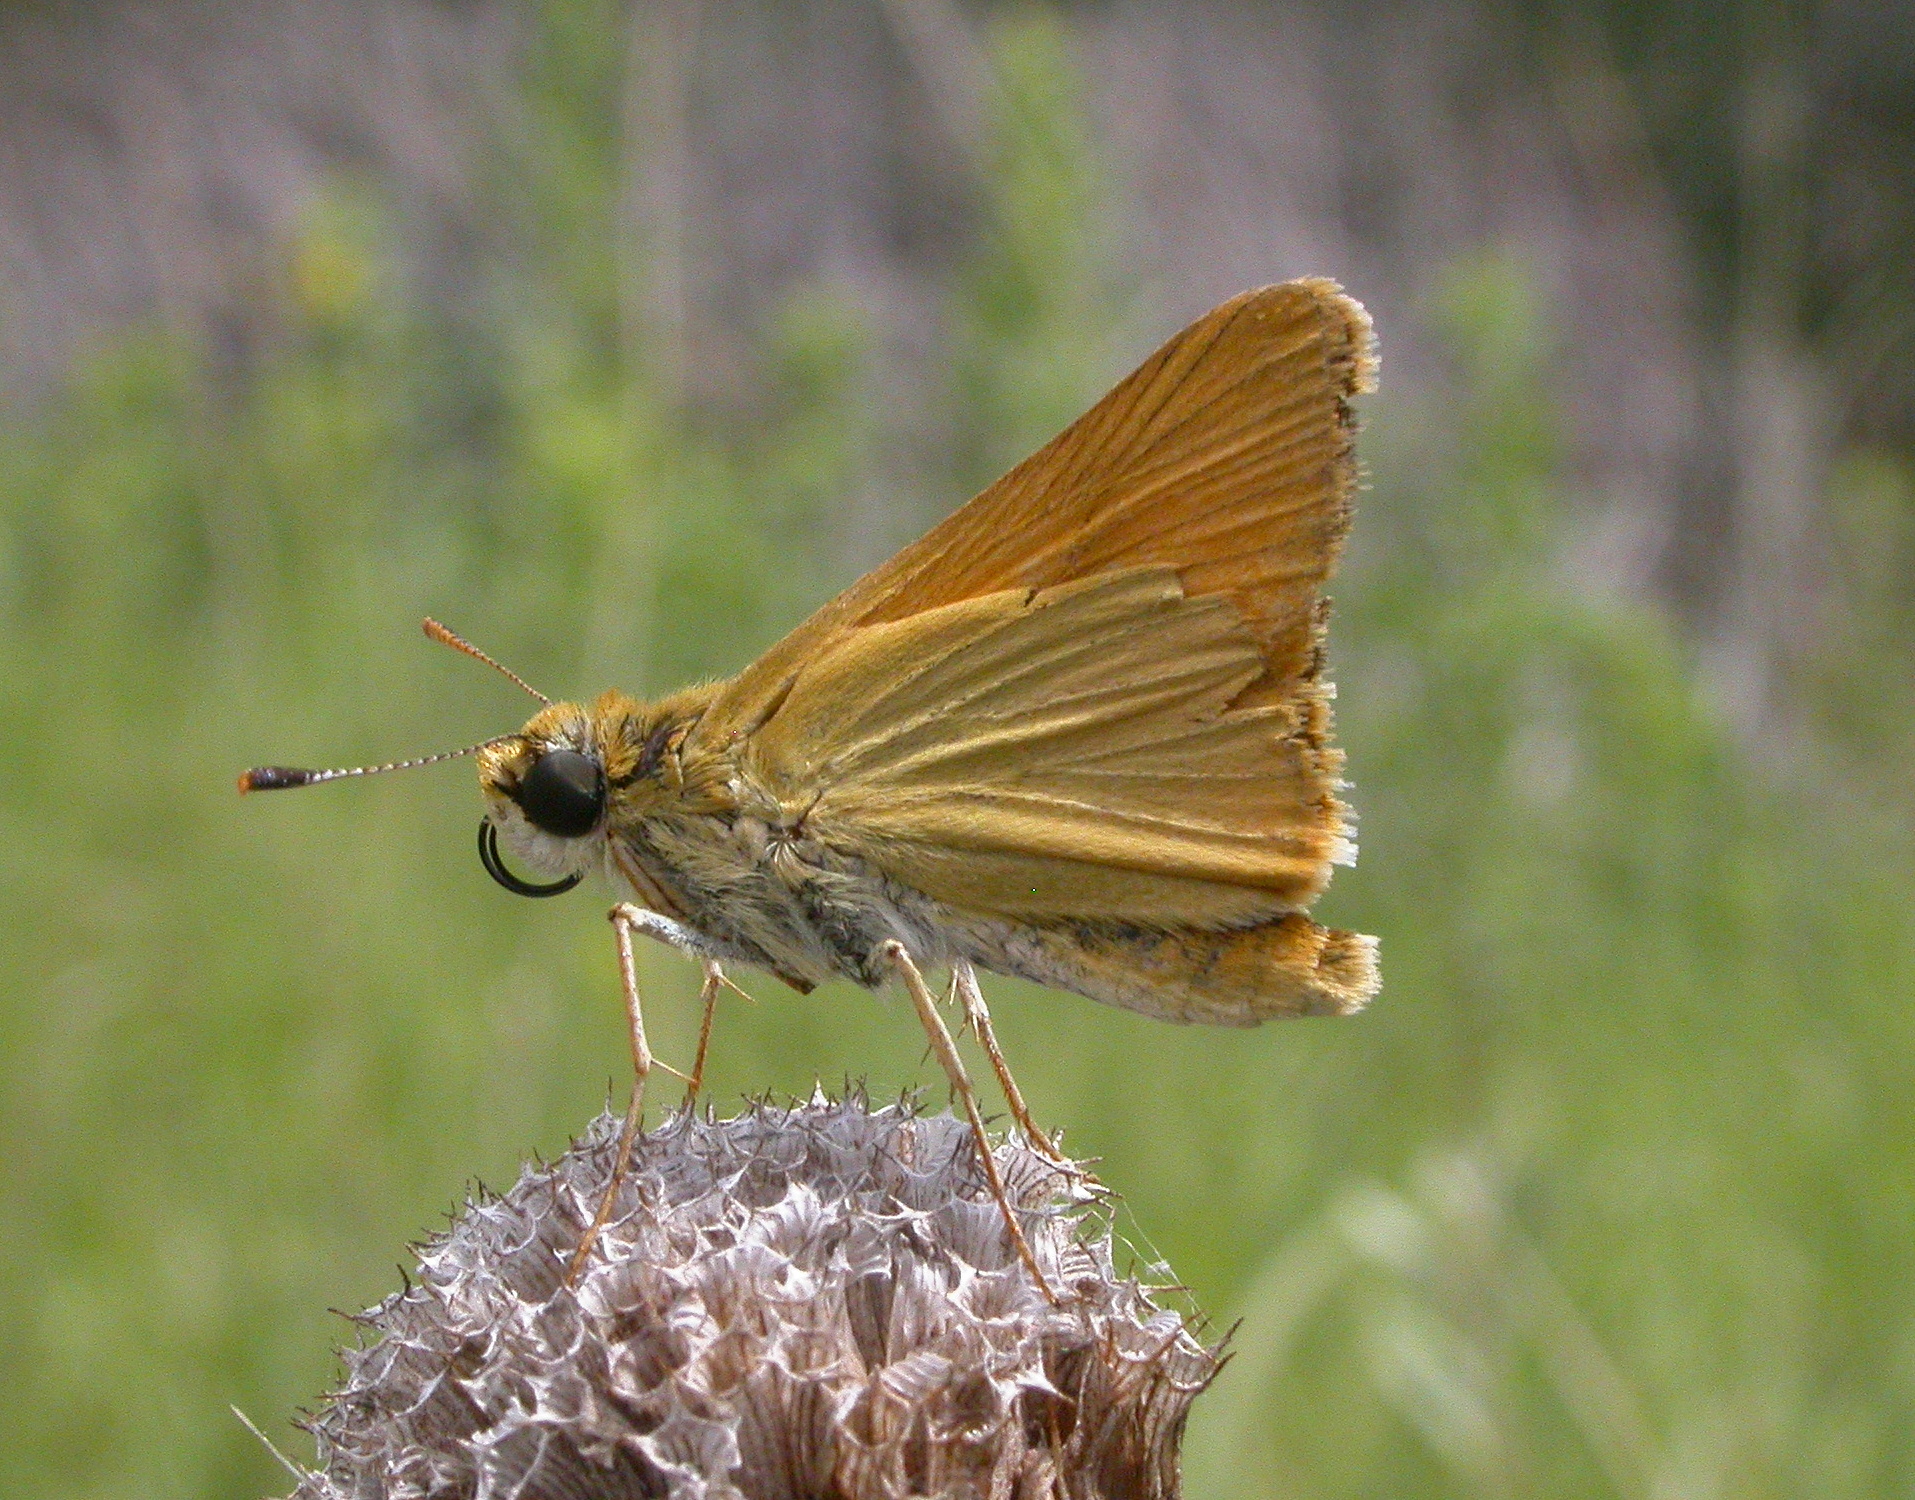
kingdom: Animalia
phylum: Arthropoda
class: Insecta
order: Lepidoptera
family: Hesperiidae
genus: Atrytone
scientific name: Atrytone delaware
